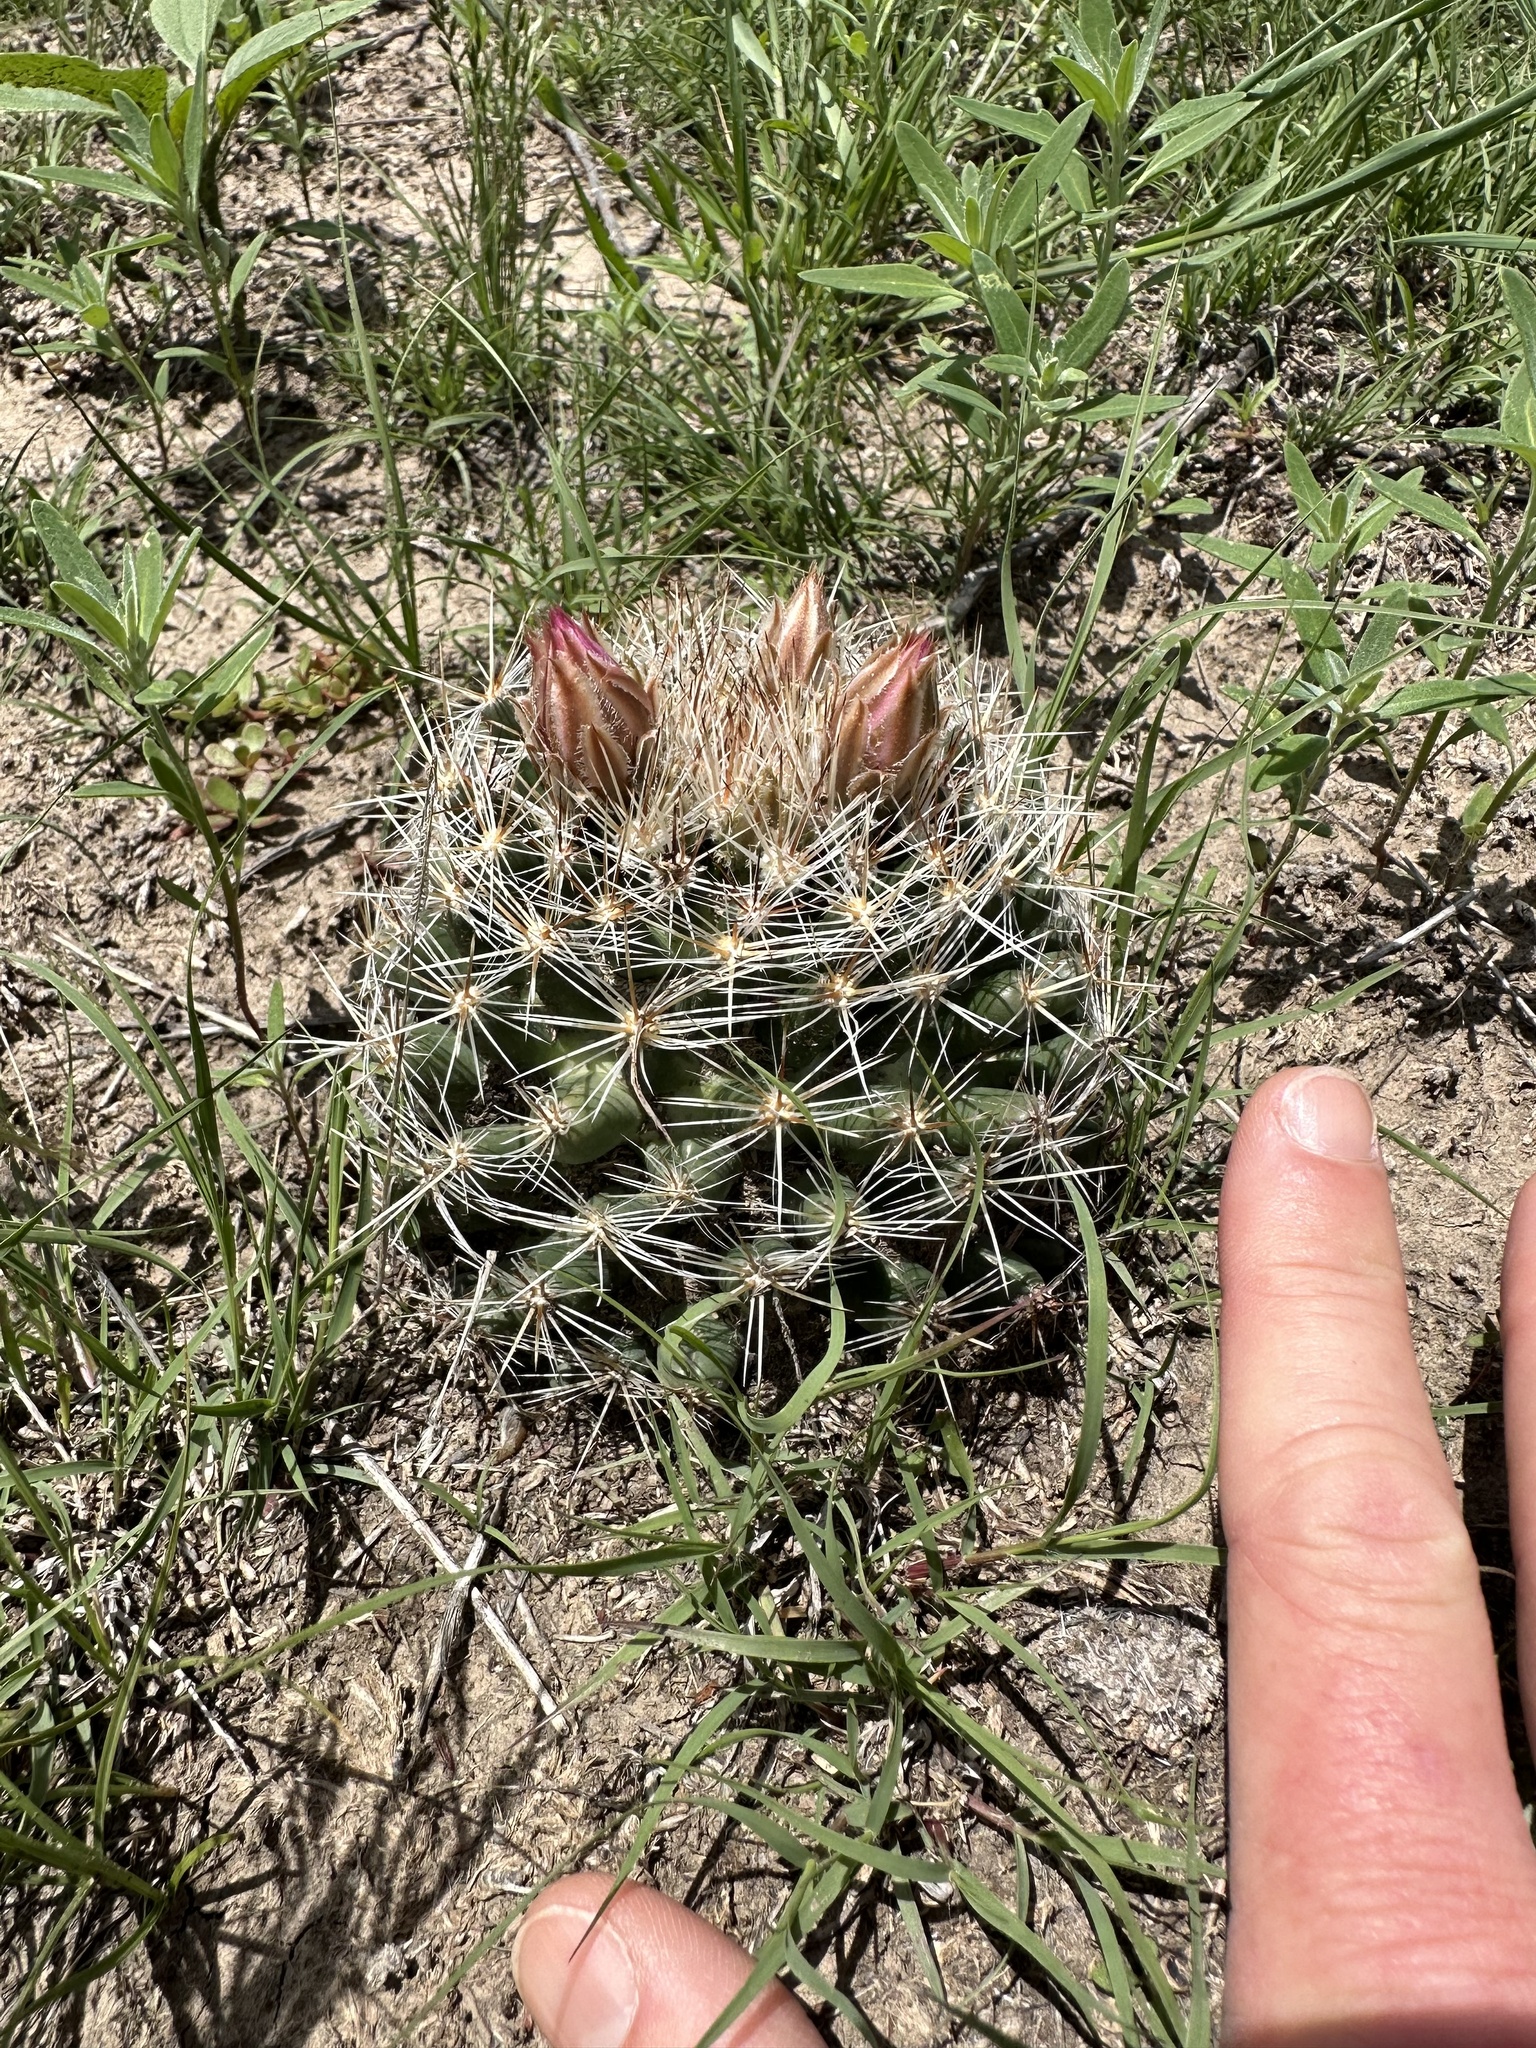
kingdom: Plantae
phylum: Tracheophyta
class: Magnoliopsida
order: Caryophyllales
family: Cactaceae
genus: Pelecyphora
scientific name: Pelecyphora vivipara
